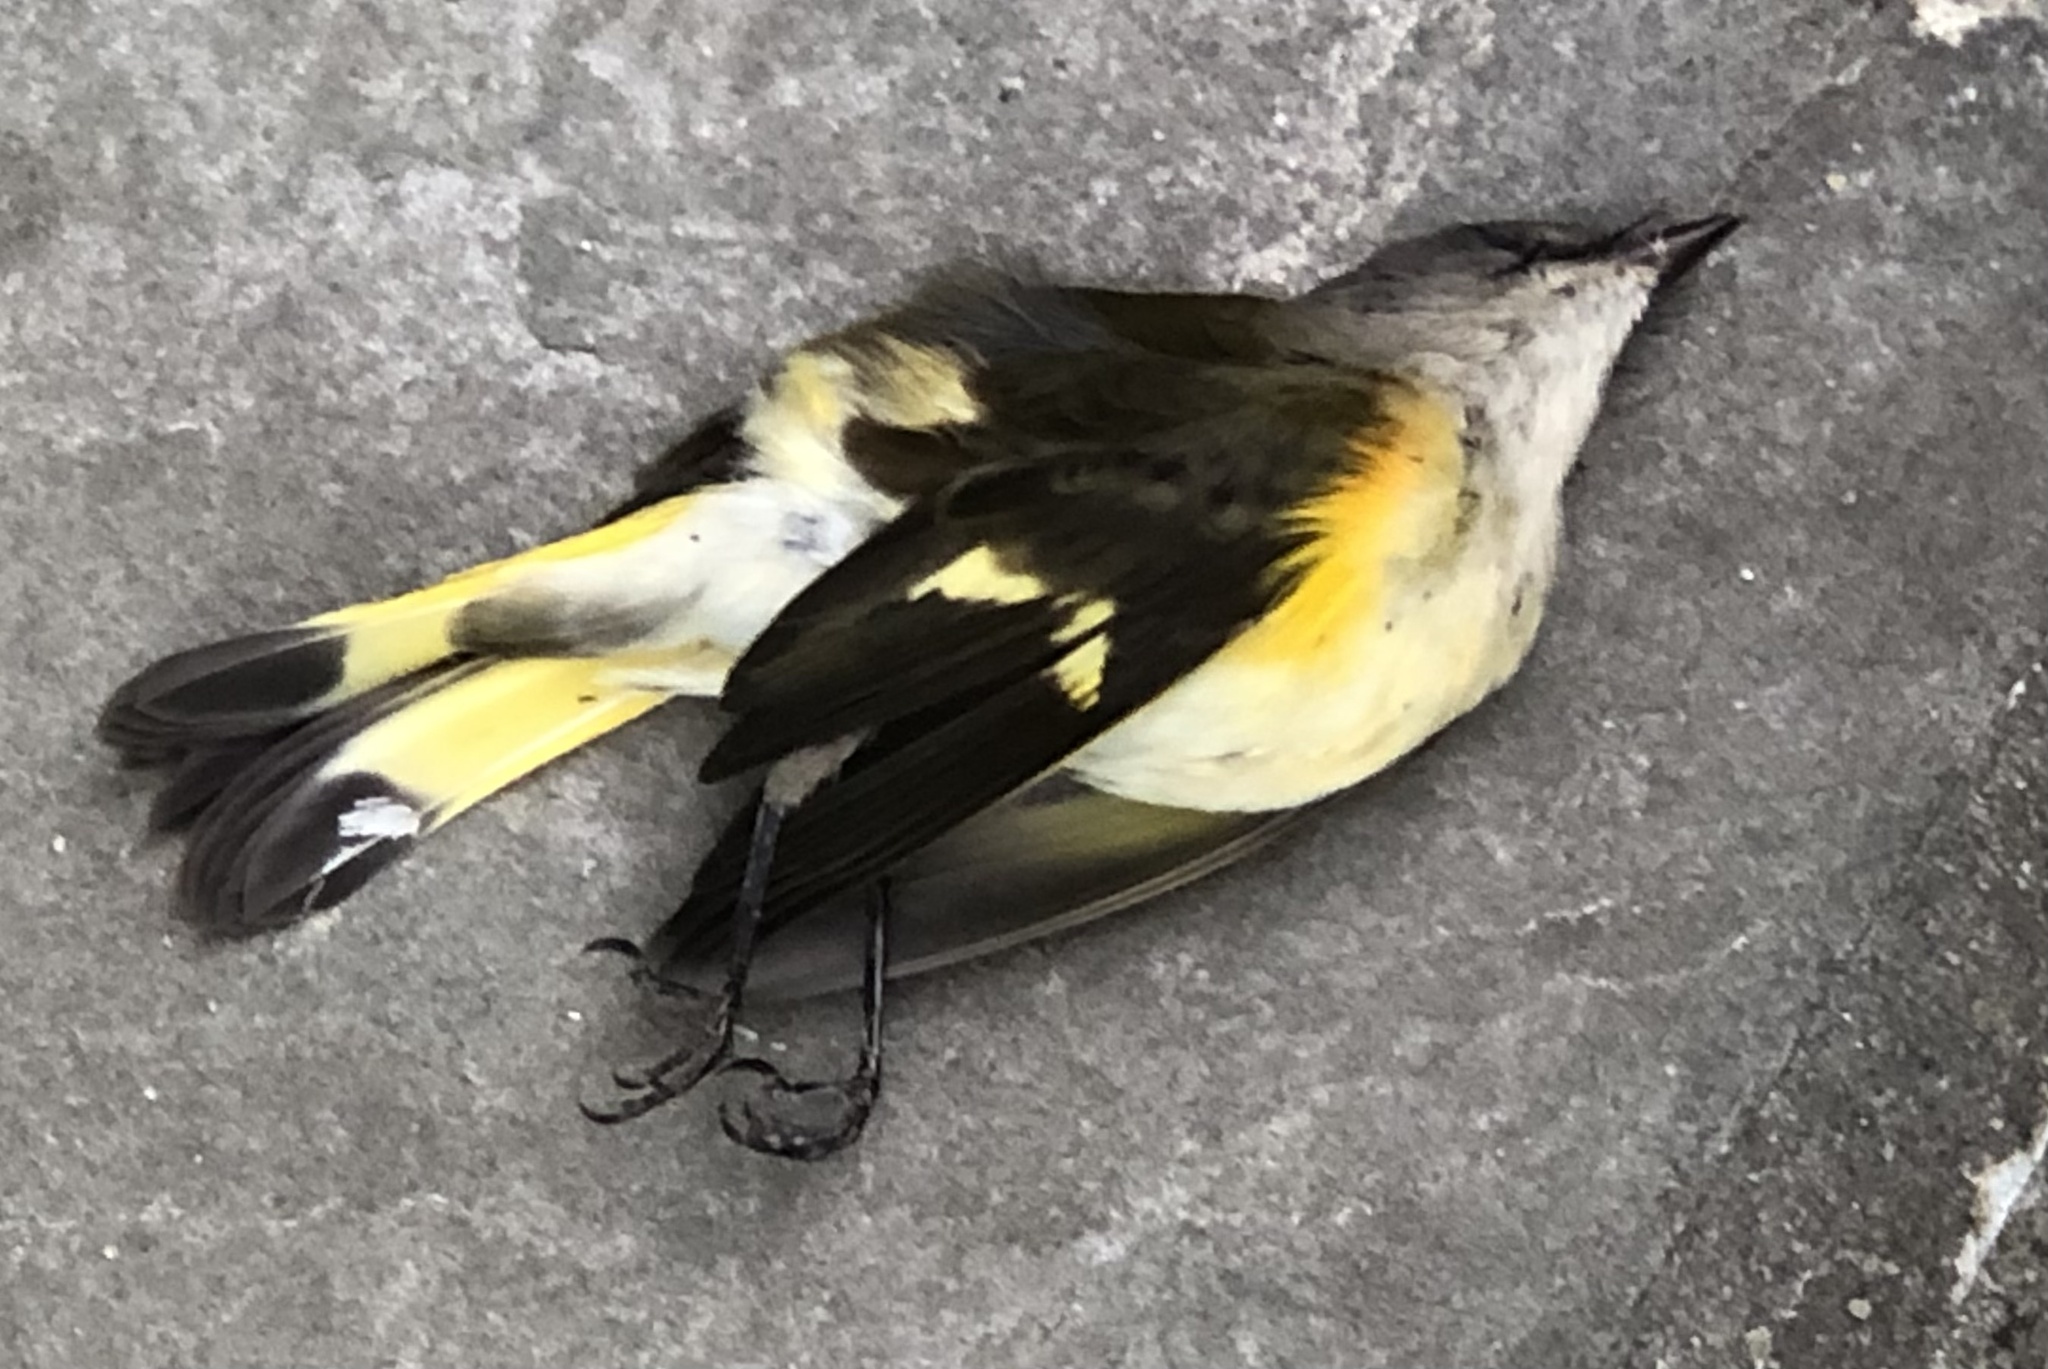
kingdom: Animalia
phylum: Chordata
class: Aves
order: Passeriformes
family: Parulidae
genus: Setophaga
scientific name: Setophaga ruticilla
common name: American redstart
